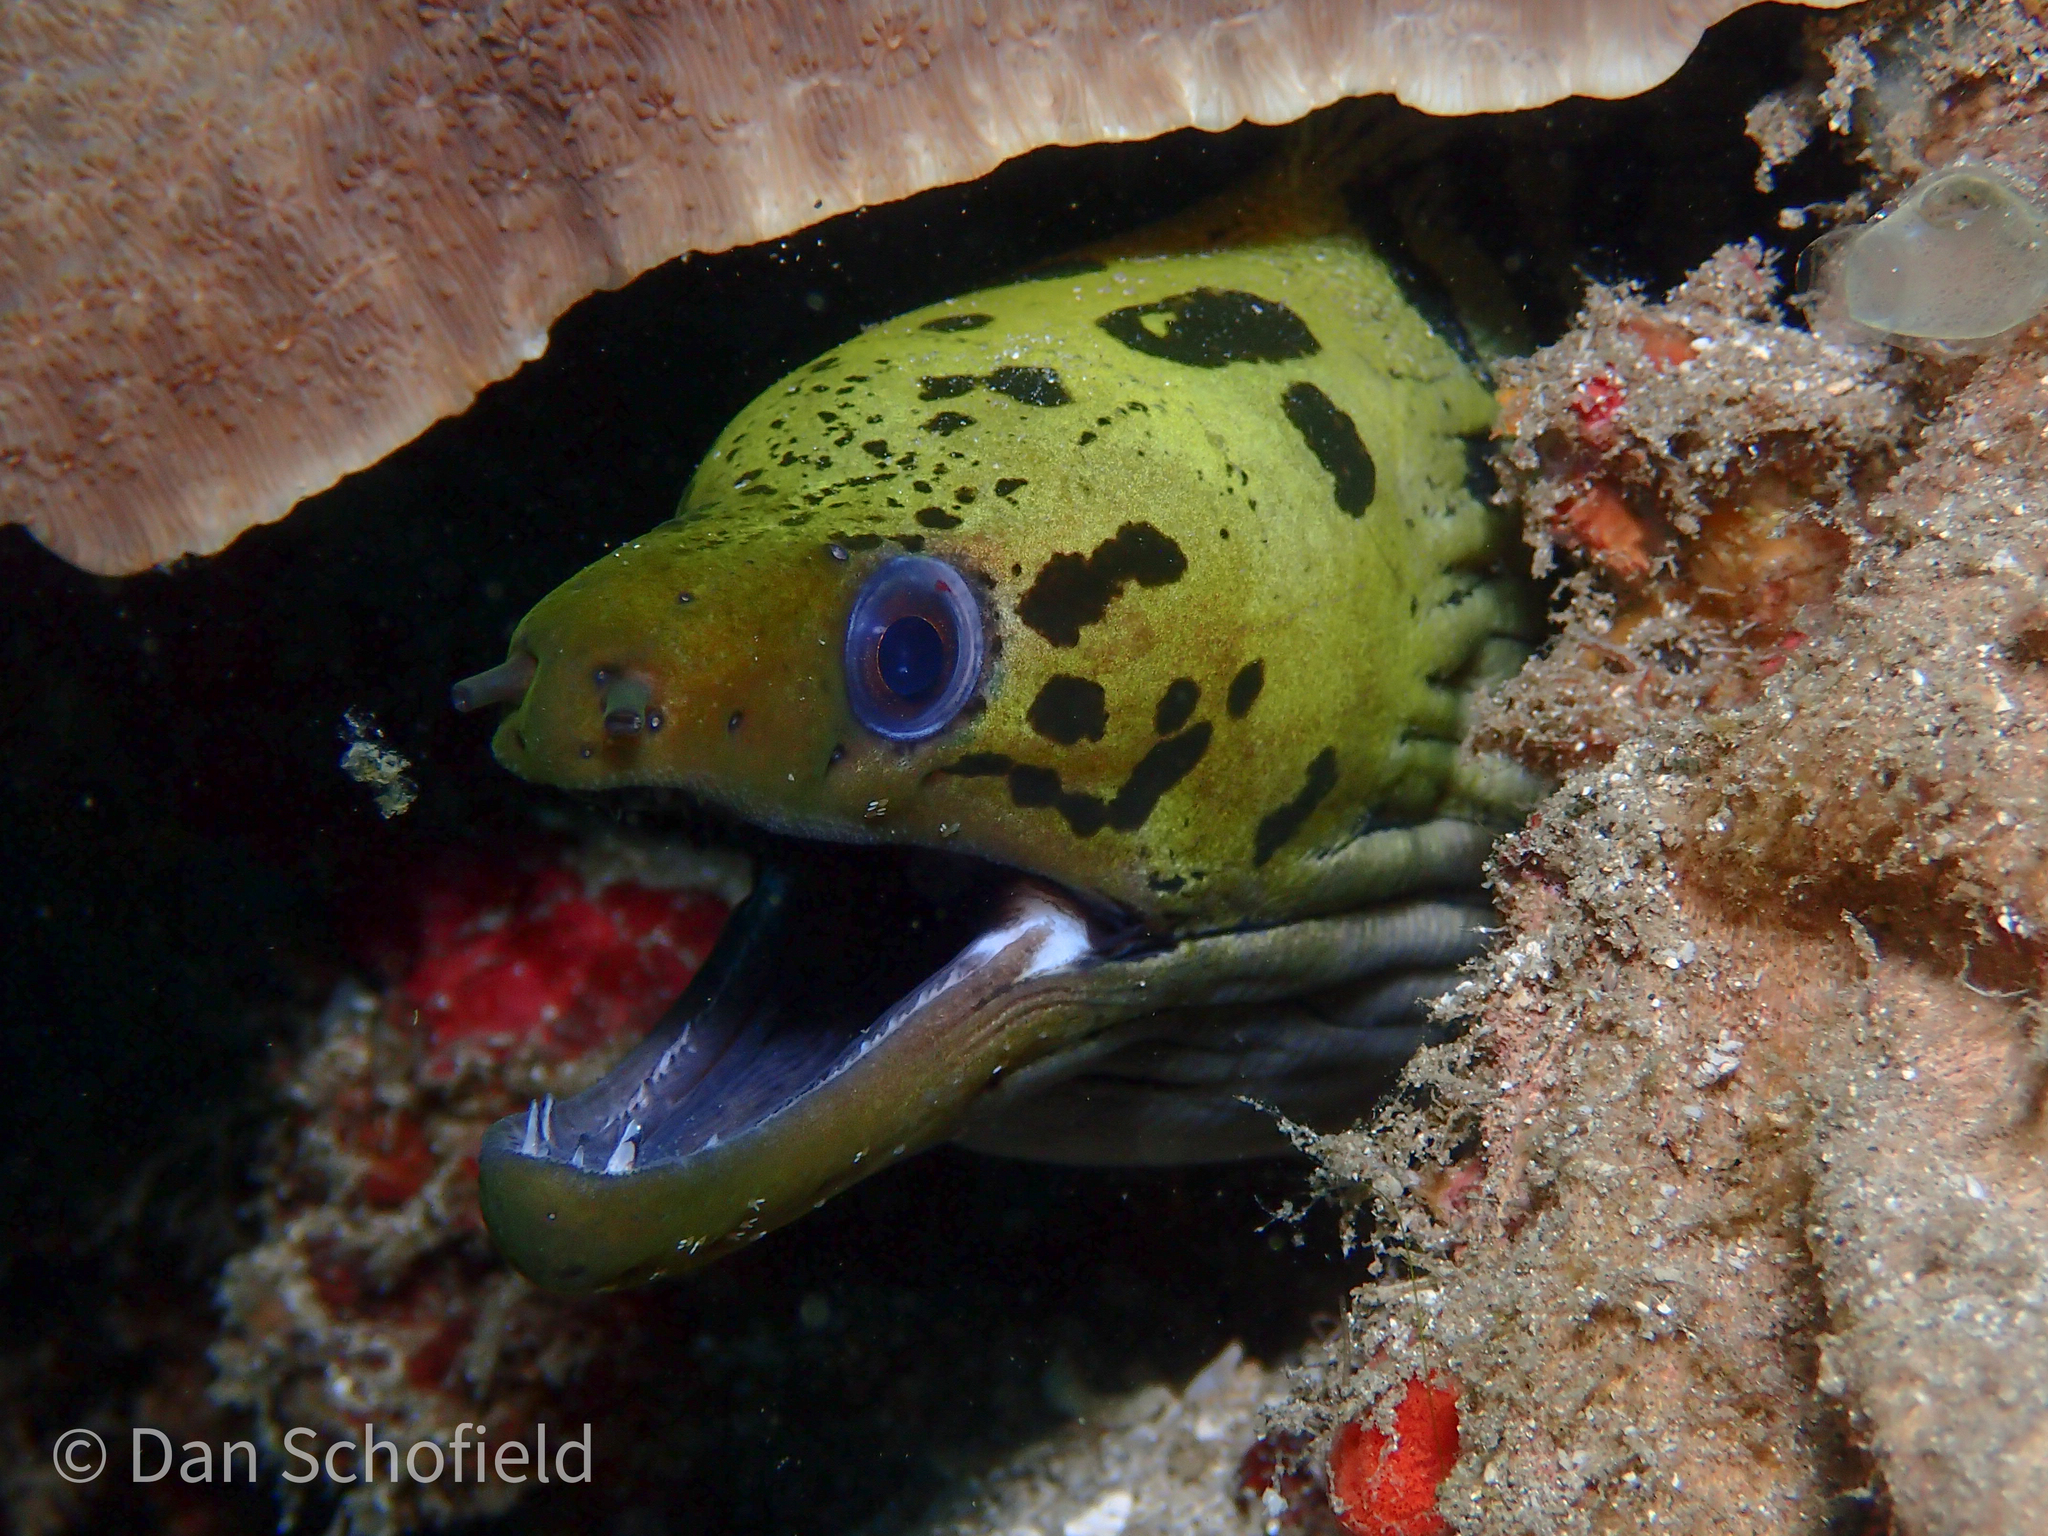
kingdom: Animalia
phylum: Chordata
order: Anguilliformes
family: Muraenidae
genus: Gymnothorax
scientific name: Gymnothorax fimbriatus
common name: Darkspotted moray
